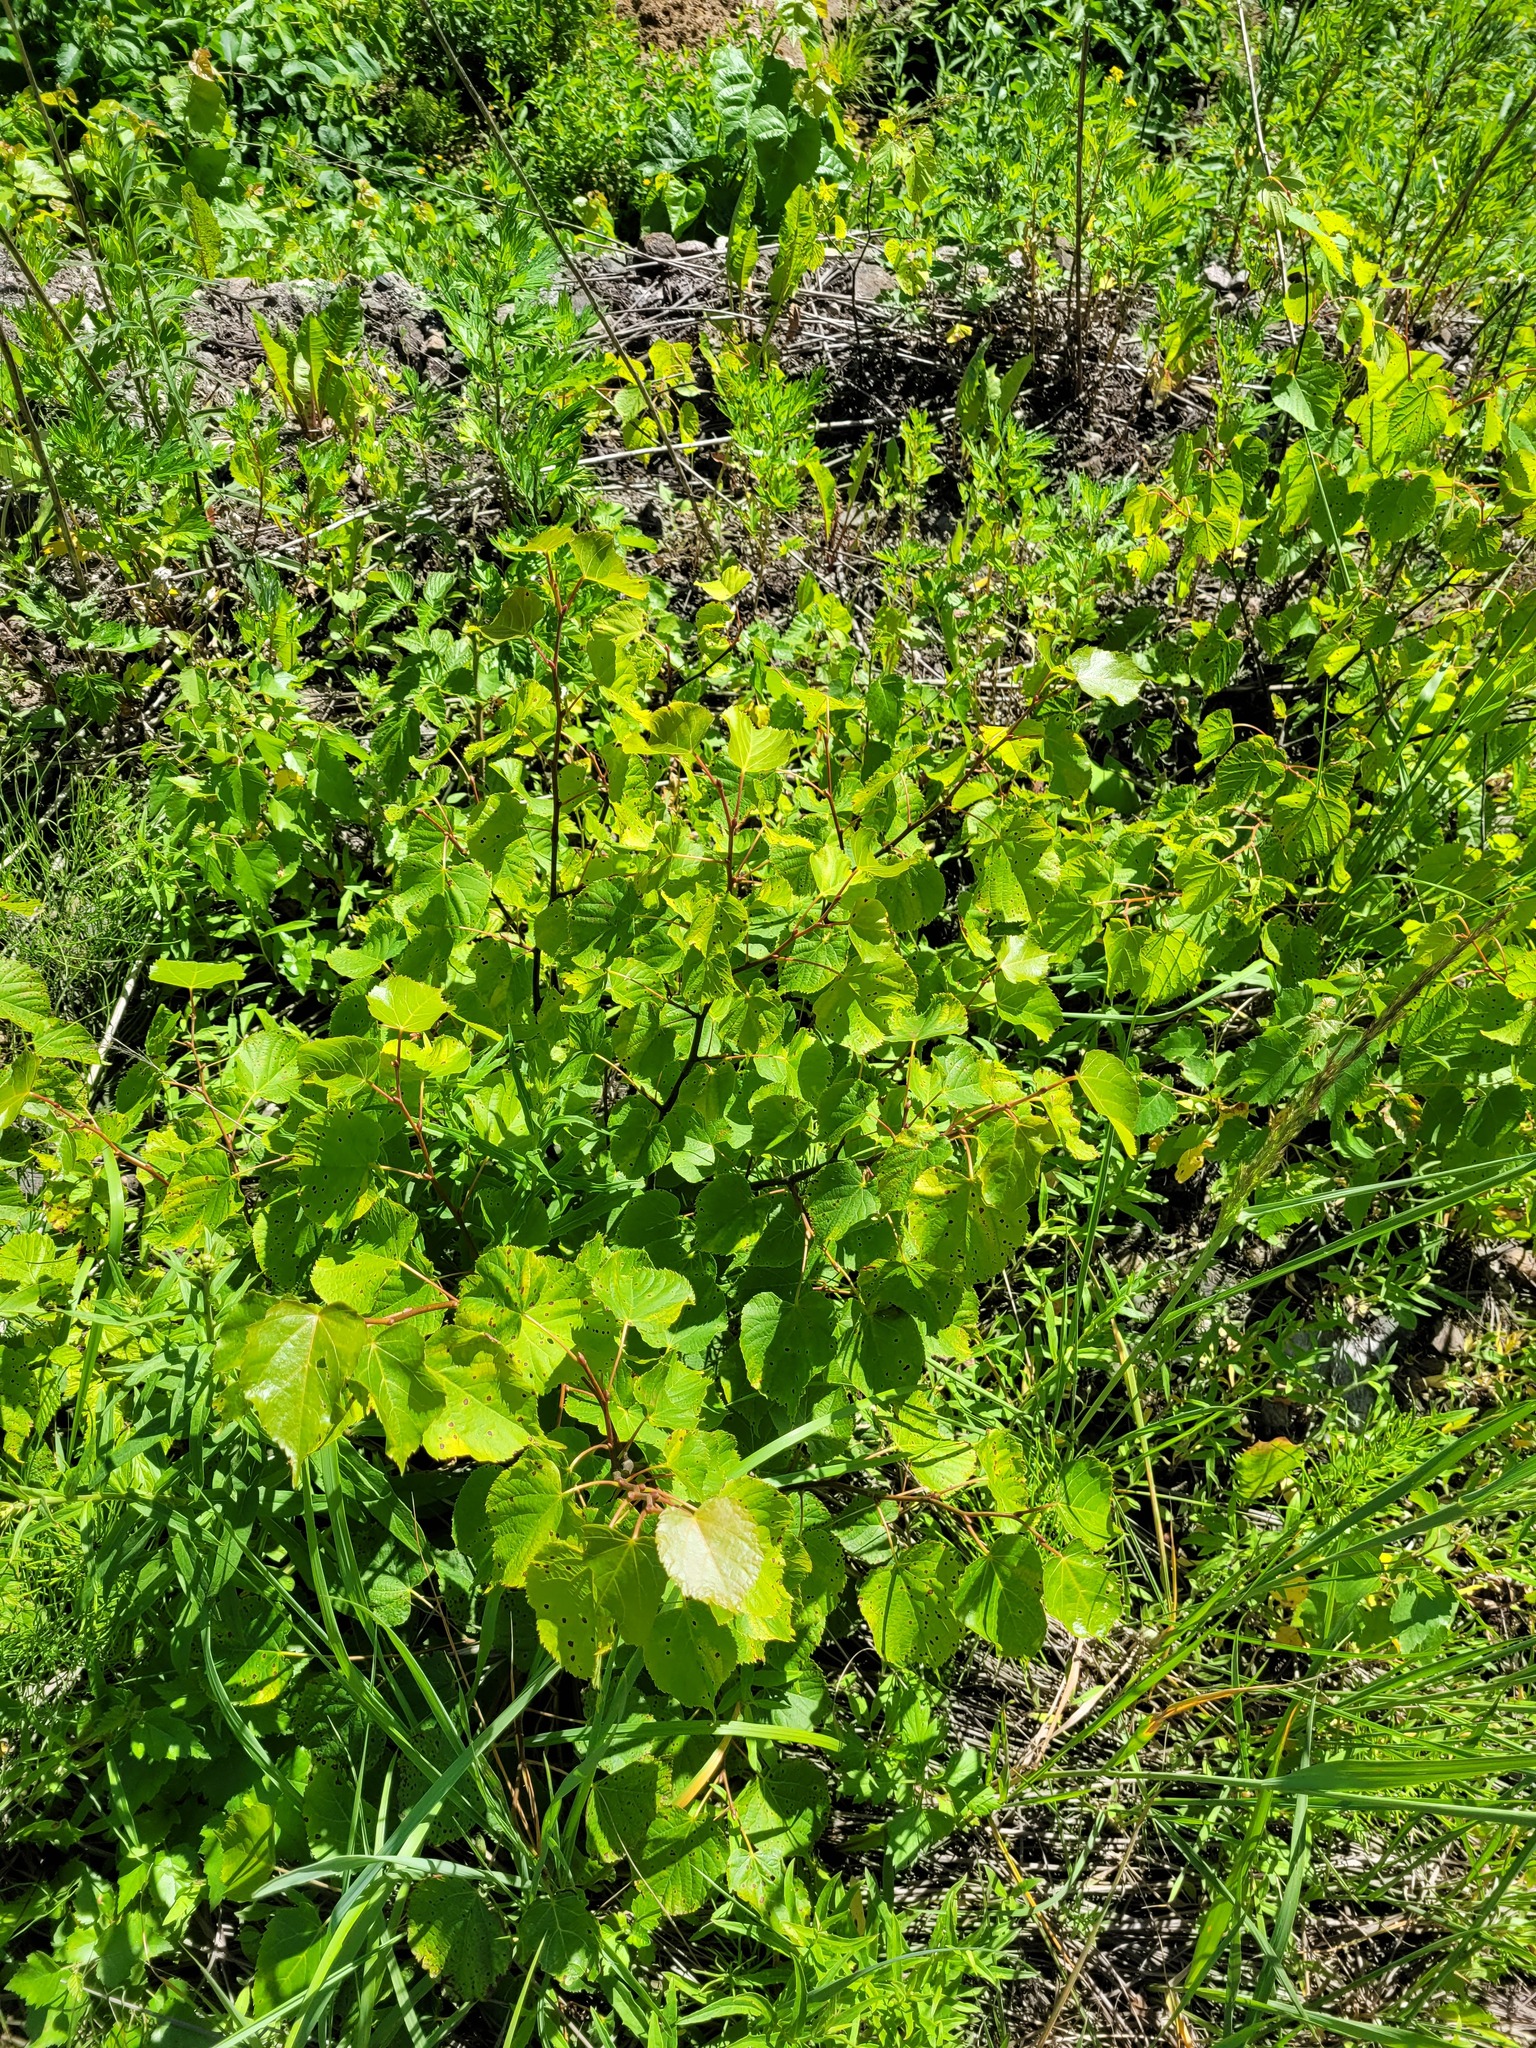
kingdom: Plantae
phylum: Tracheophyta
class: Magnoliopsida
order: Malvales
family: Malvaceae
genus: Tilia
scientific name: Tilia cordata
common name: Small-leaved lime
